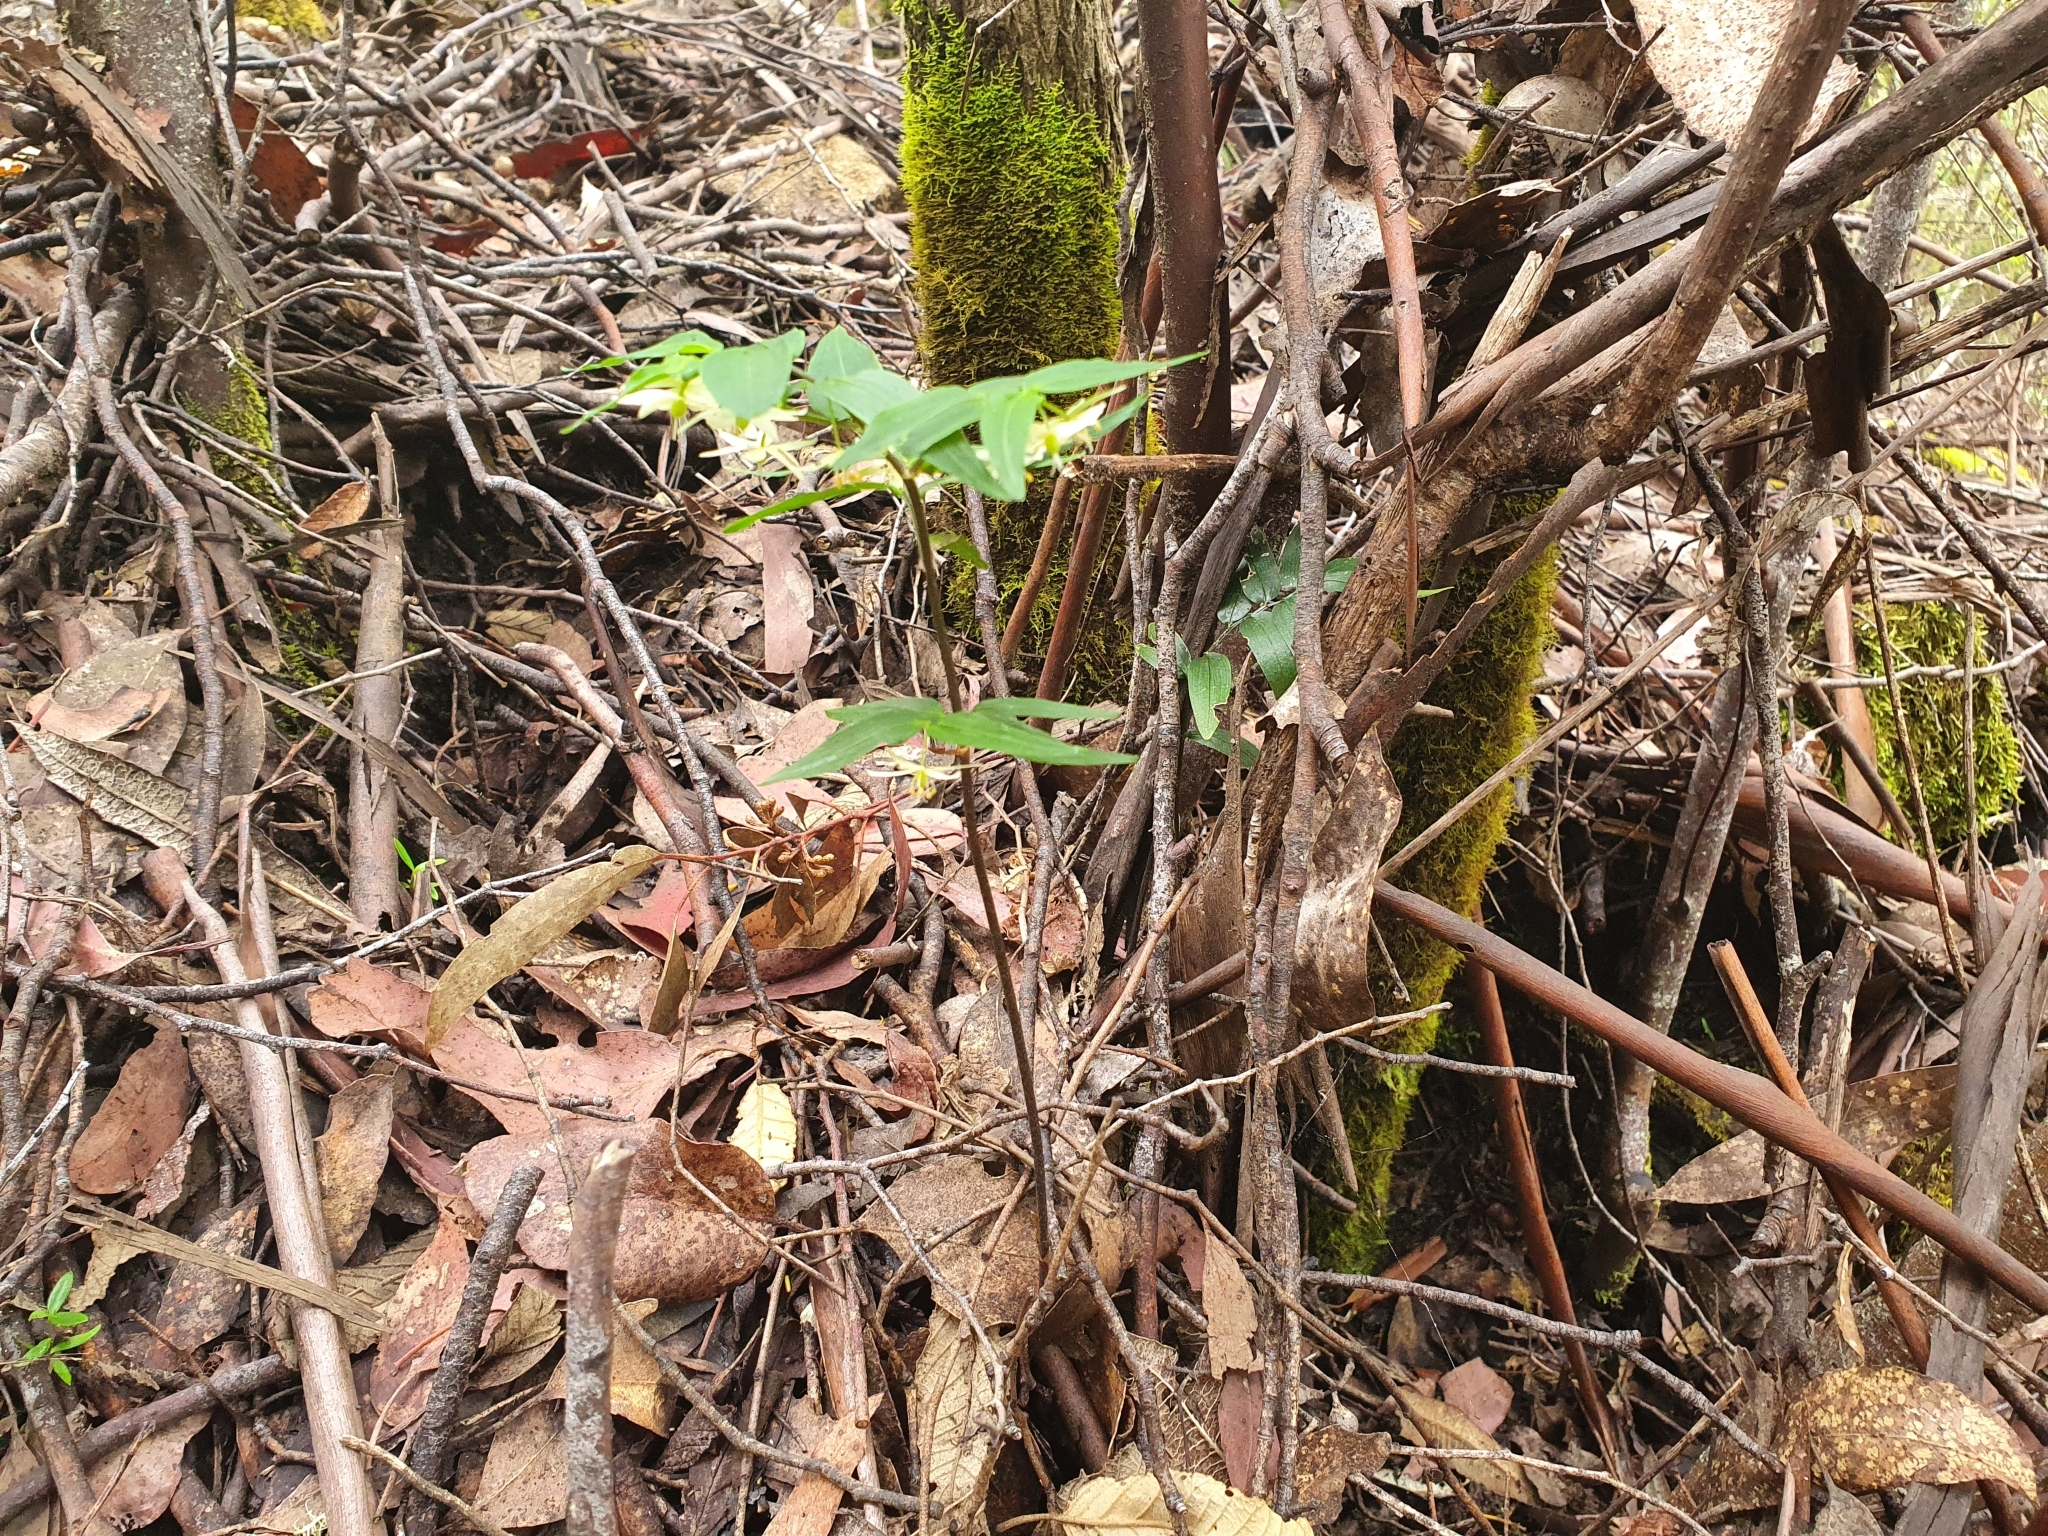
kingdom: Plantae
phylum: Tracheophyta
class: Liliopsida
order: Liliales
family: Alstroemeriaceae
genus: Drymophila
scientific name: Drymophila cyanocarpa
